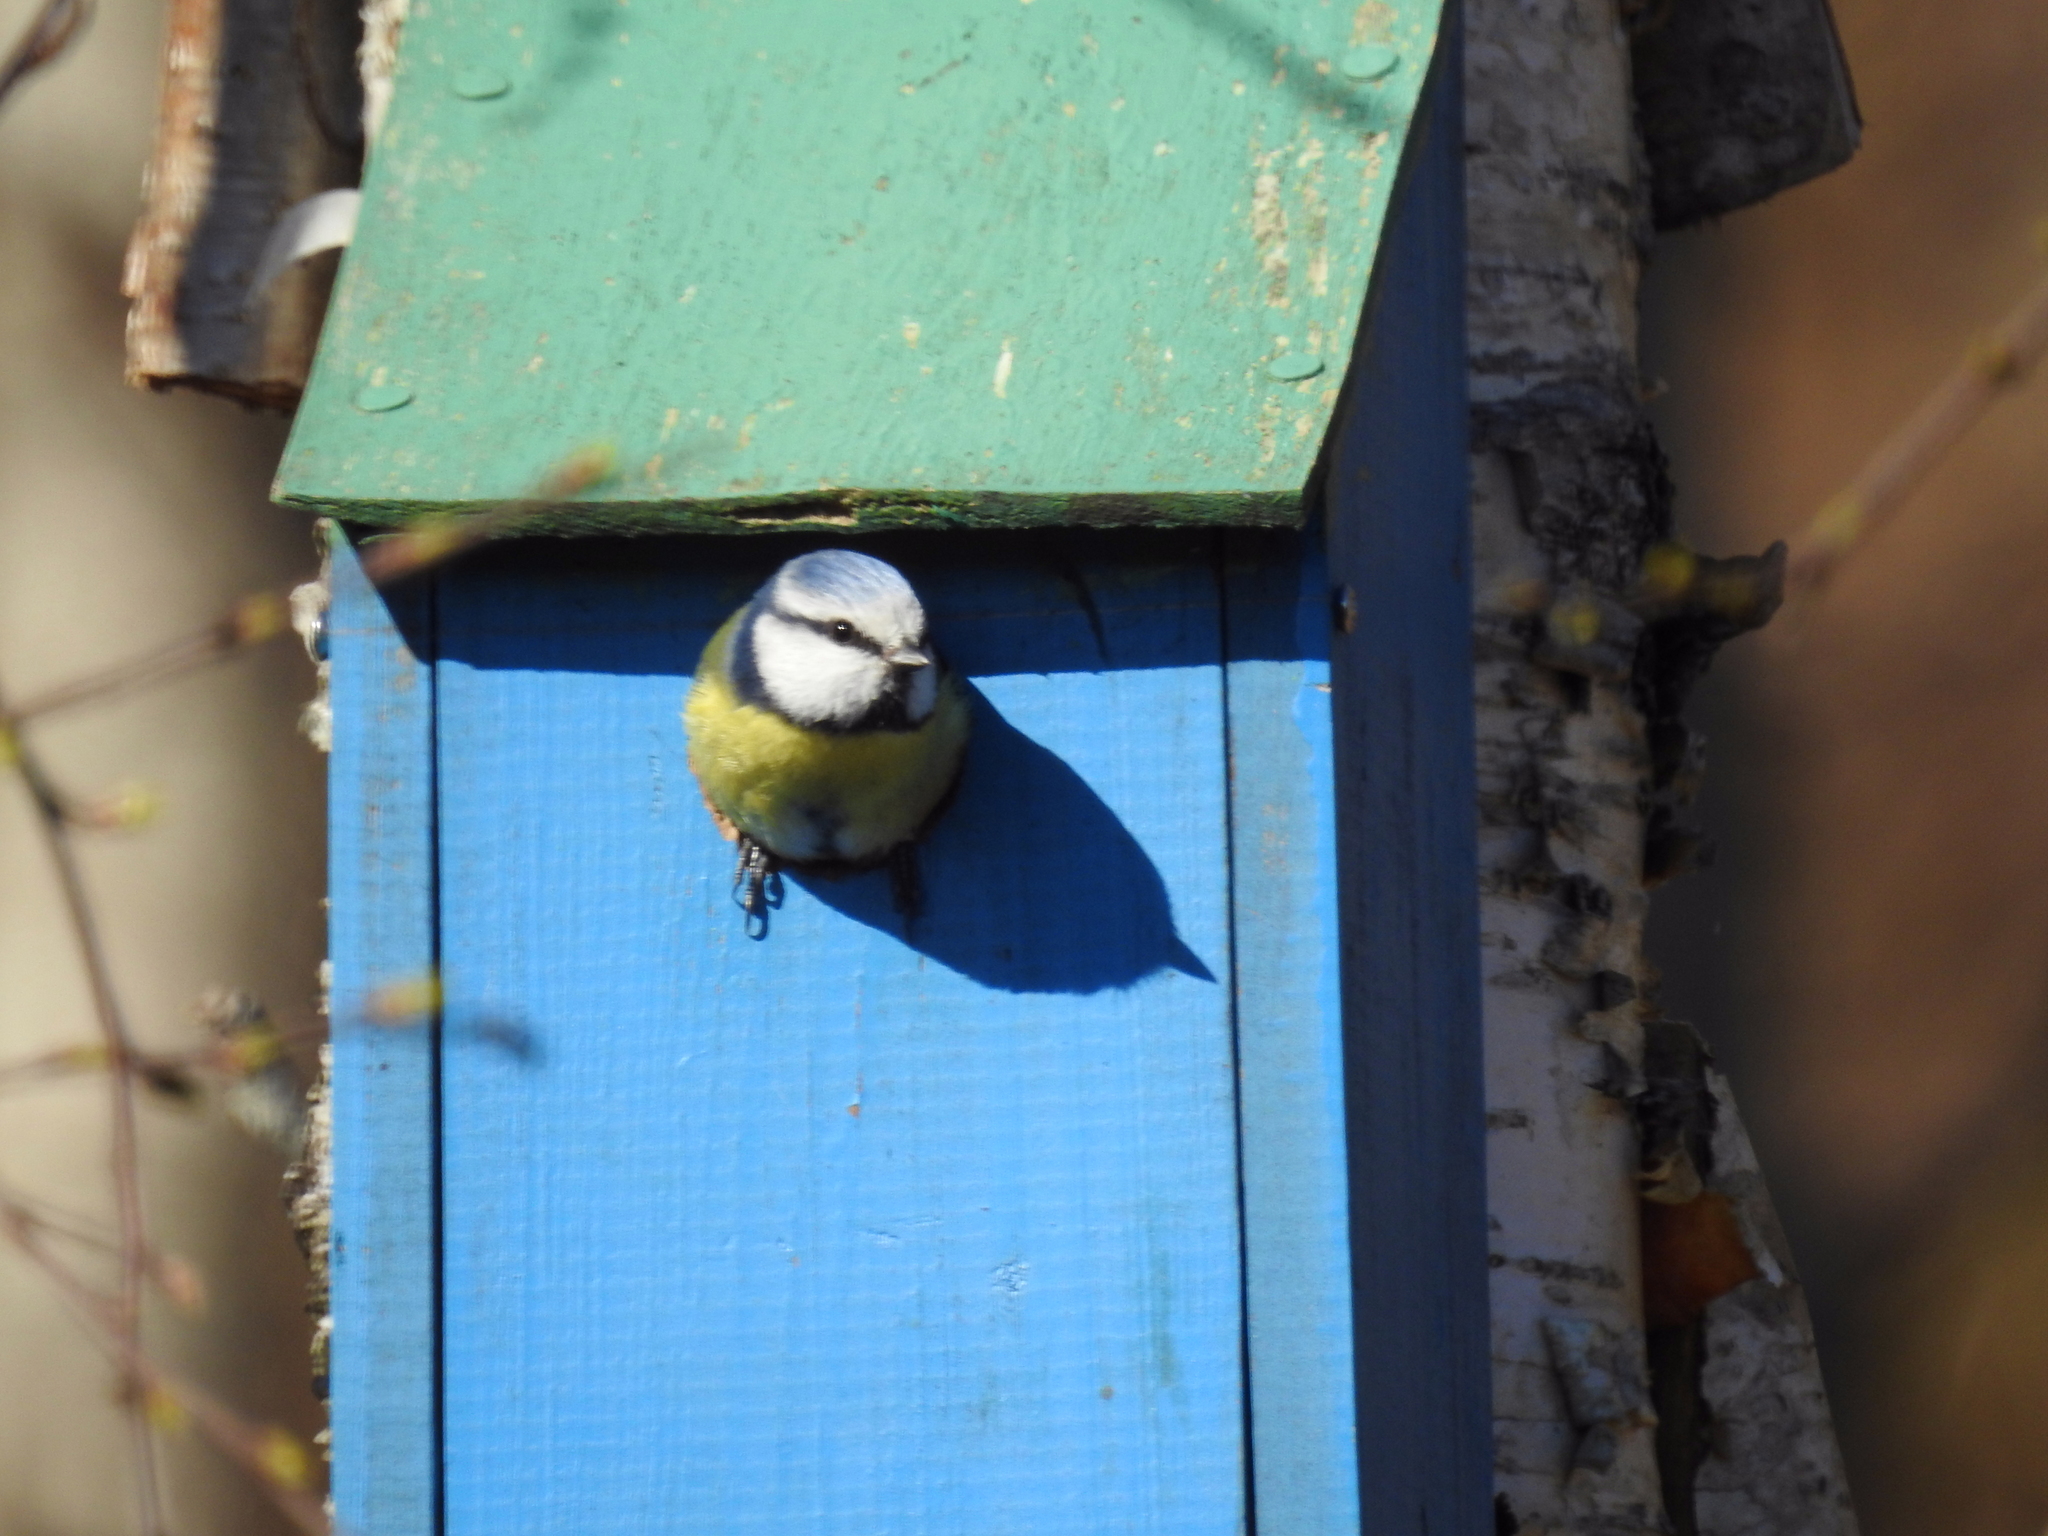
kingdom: Animalia
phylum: Chordata
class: Aves
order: Passeriformes
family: Paridae
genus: Cyanistes
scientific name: Cyanistes caeruleus
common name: Eurasian blue tit
